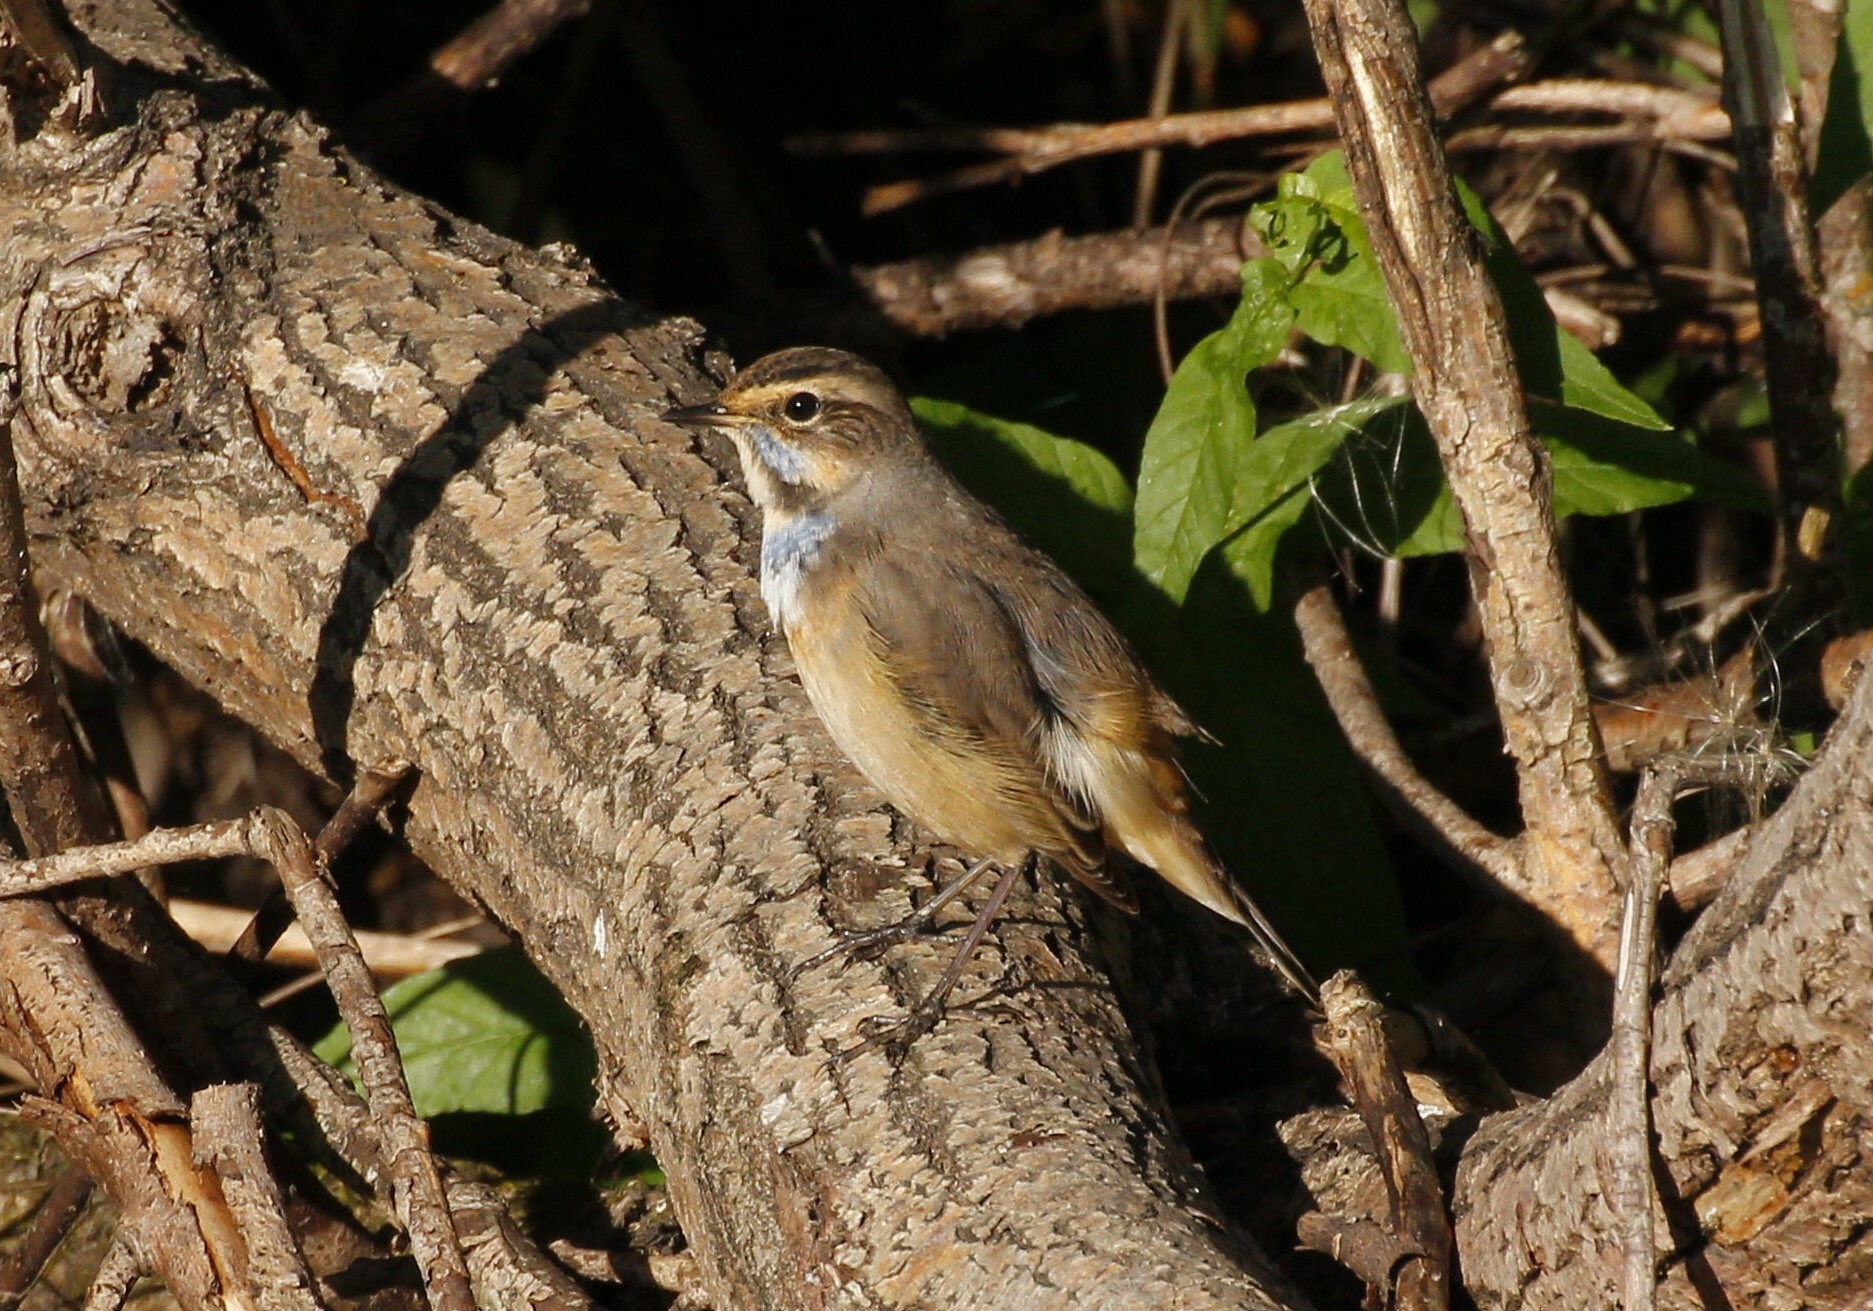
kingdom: Animalia
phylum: Chordata
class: Aves
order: Passeriformes
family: Muscicapidae
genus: Luscinia
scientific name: Luscinia svecica
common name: Bluethroat
